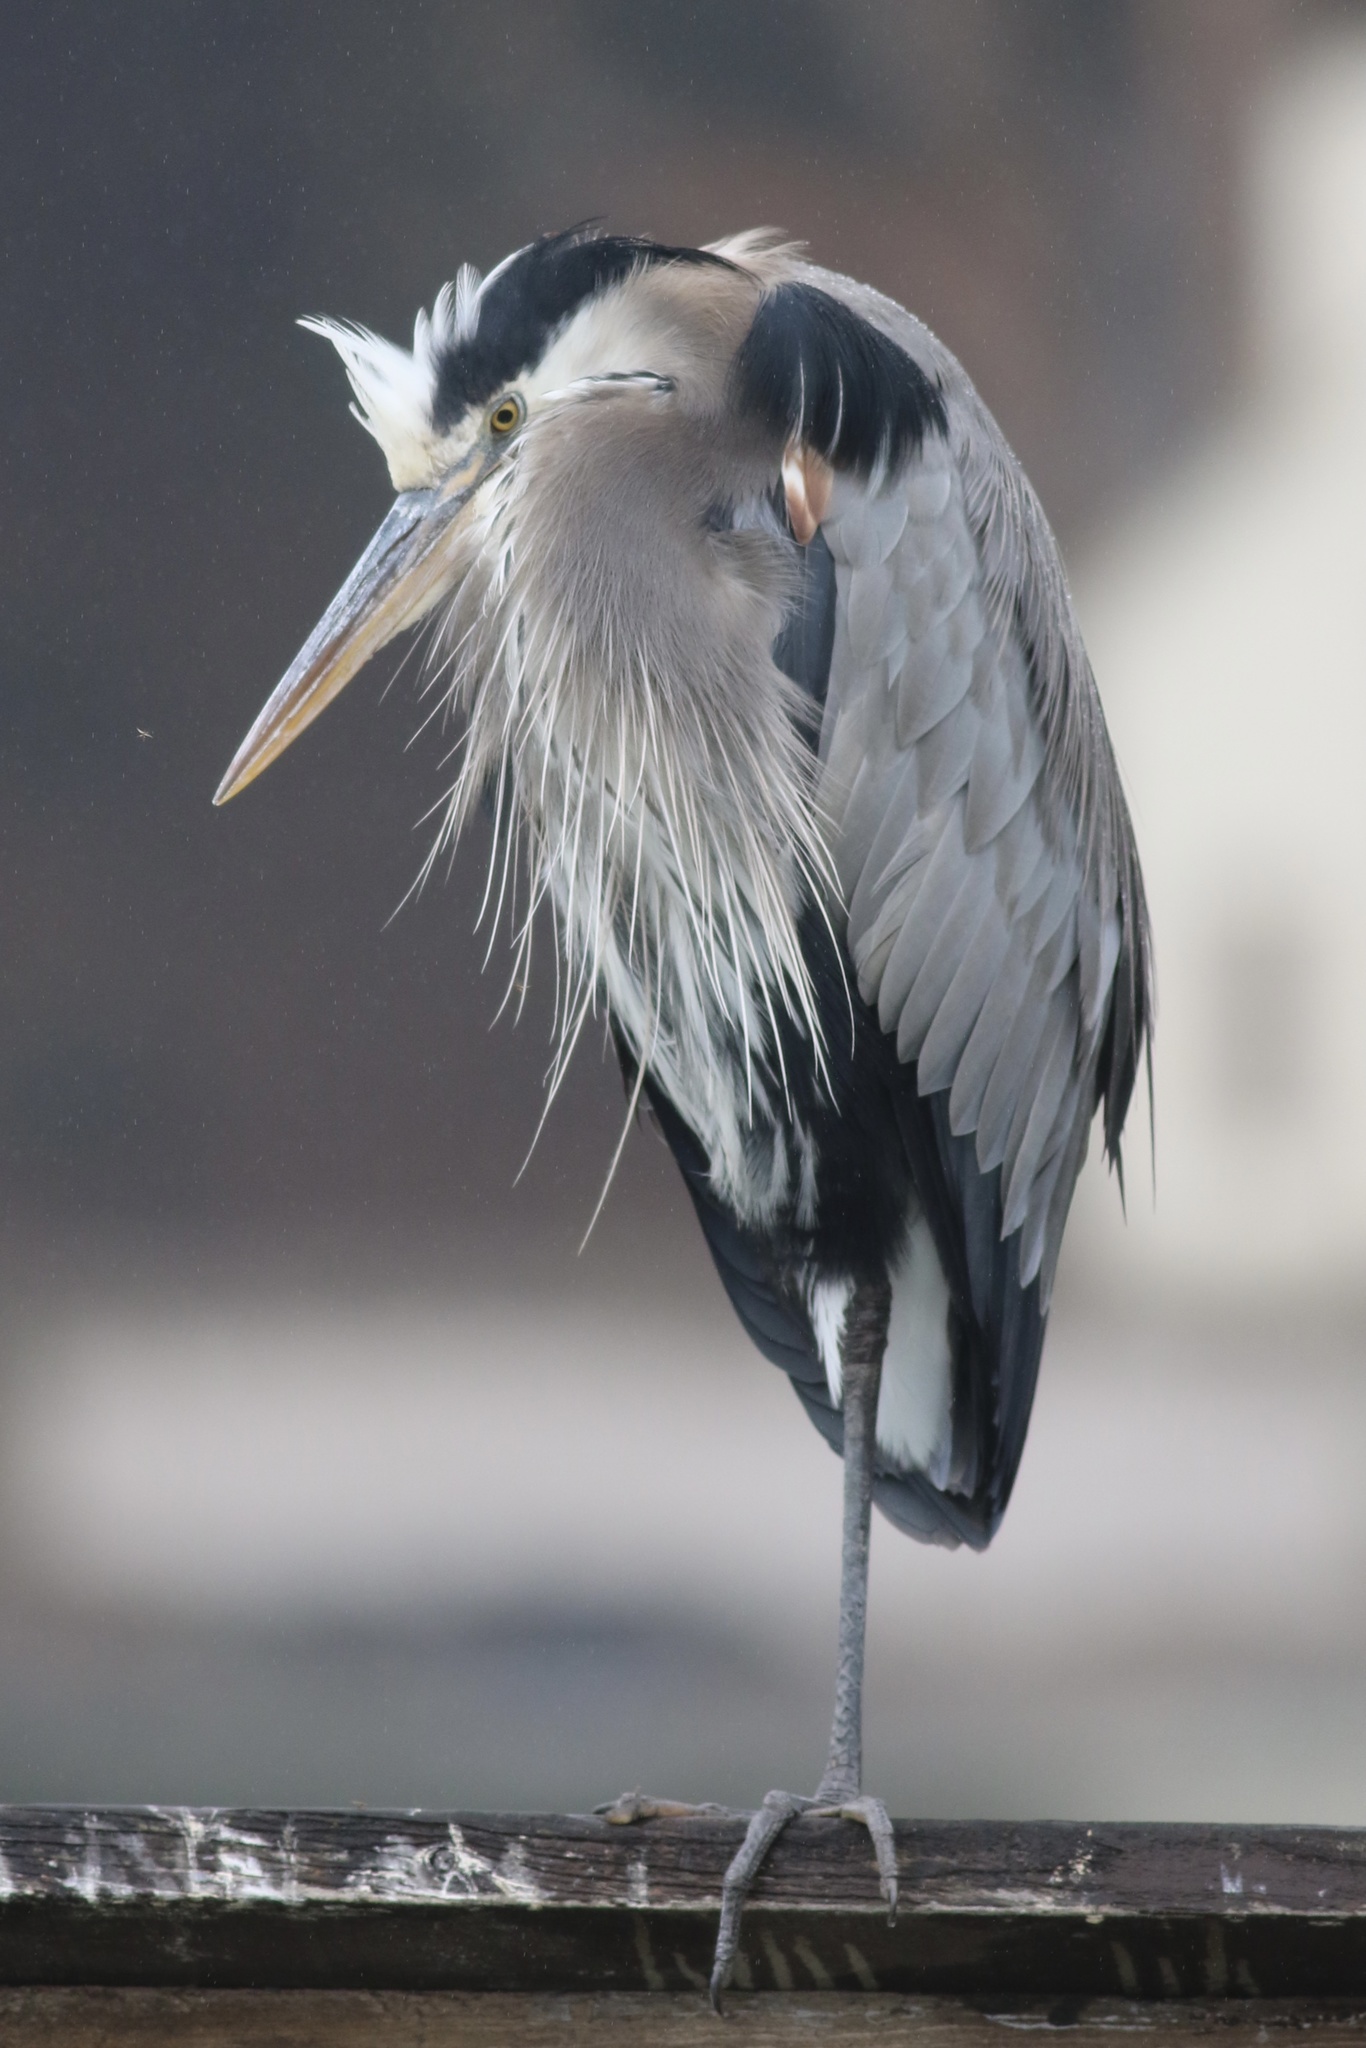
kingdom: Animalia
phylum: Chordata
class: Aves
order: Pelecaniformes
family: Ardeidae
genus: Ardea
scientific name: Ardea herodias
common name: Great blue heron
